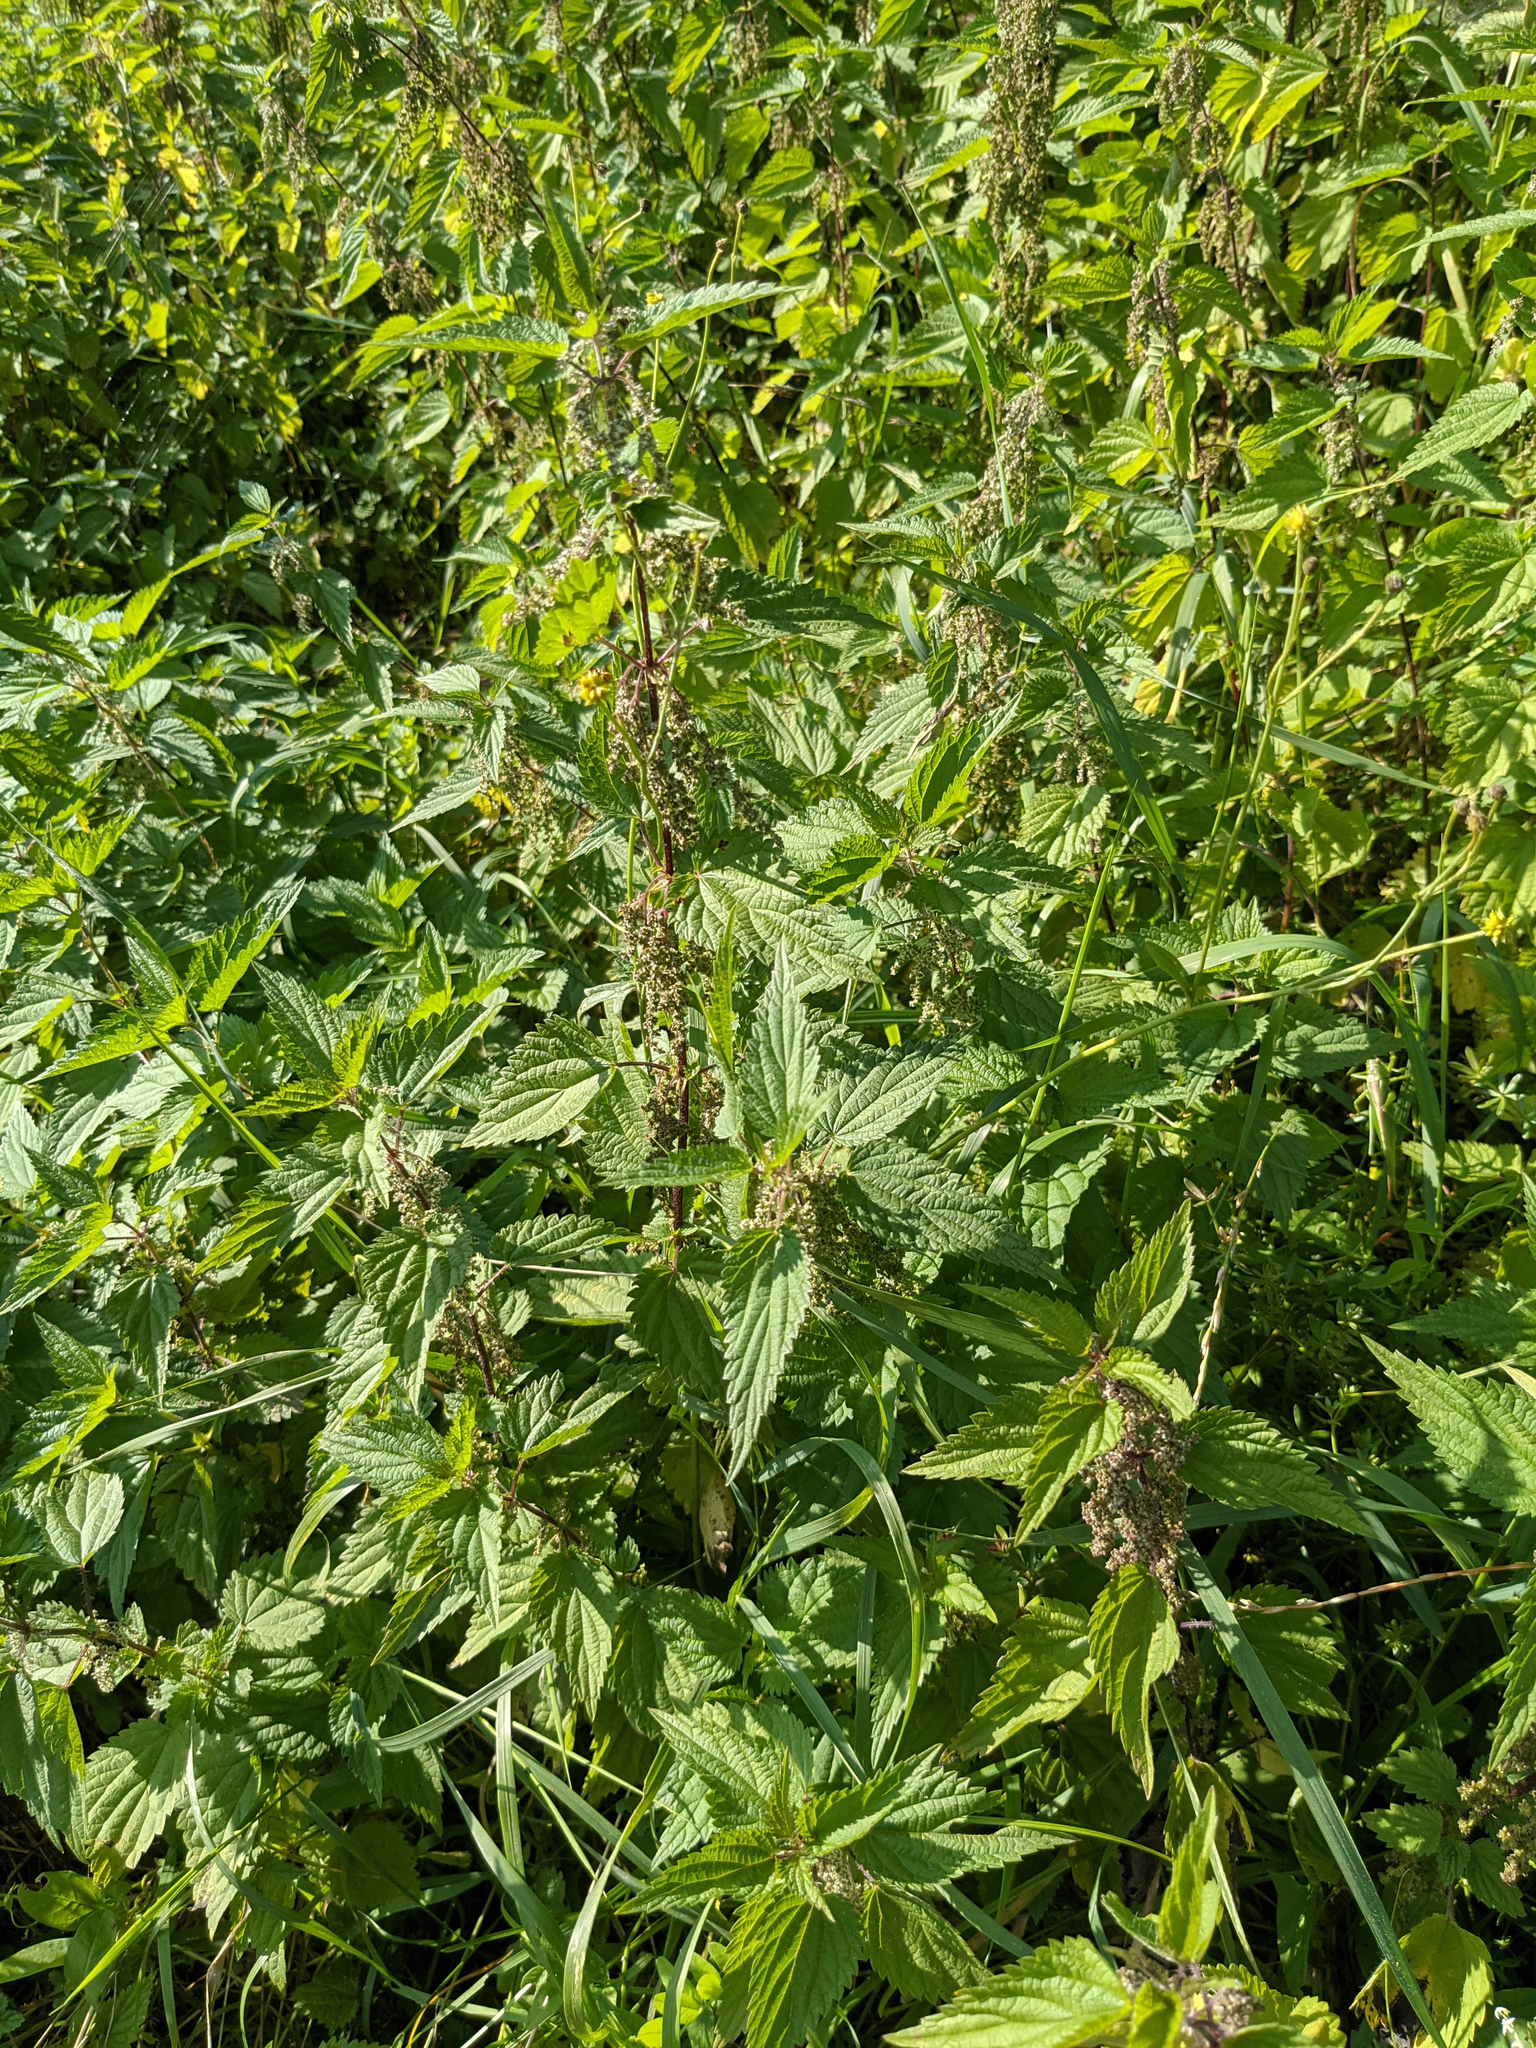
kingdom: Plantae
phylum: Tracheophyta
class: Magnoliopsida
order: Rosales
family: Urticaceae
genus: Urtica
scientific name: Urtica dioica
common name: Common nettle
